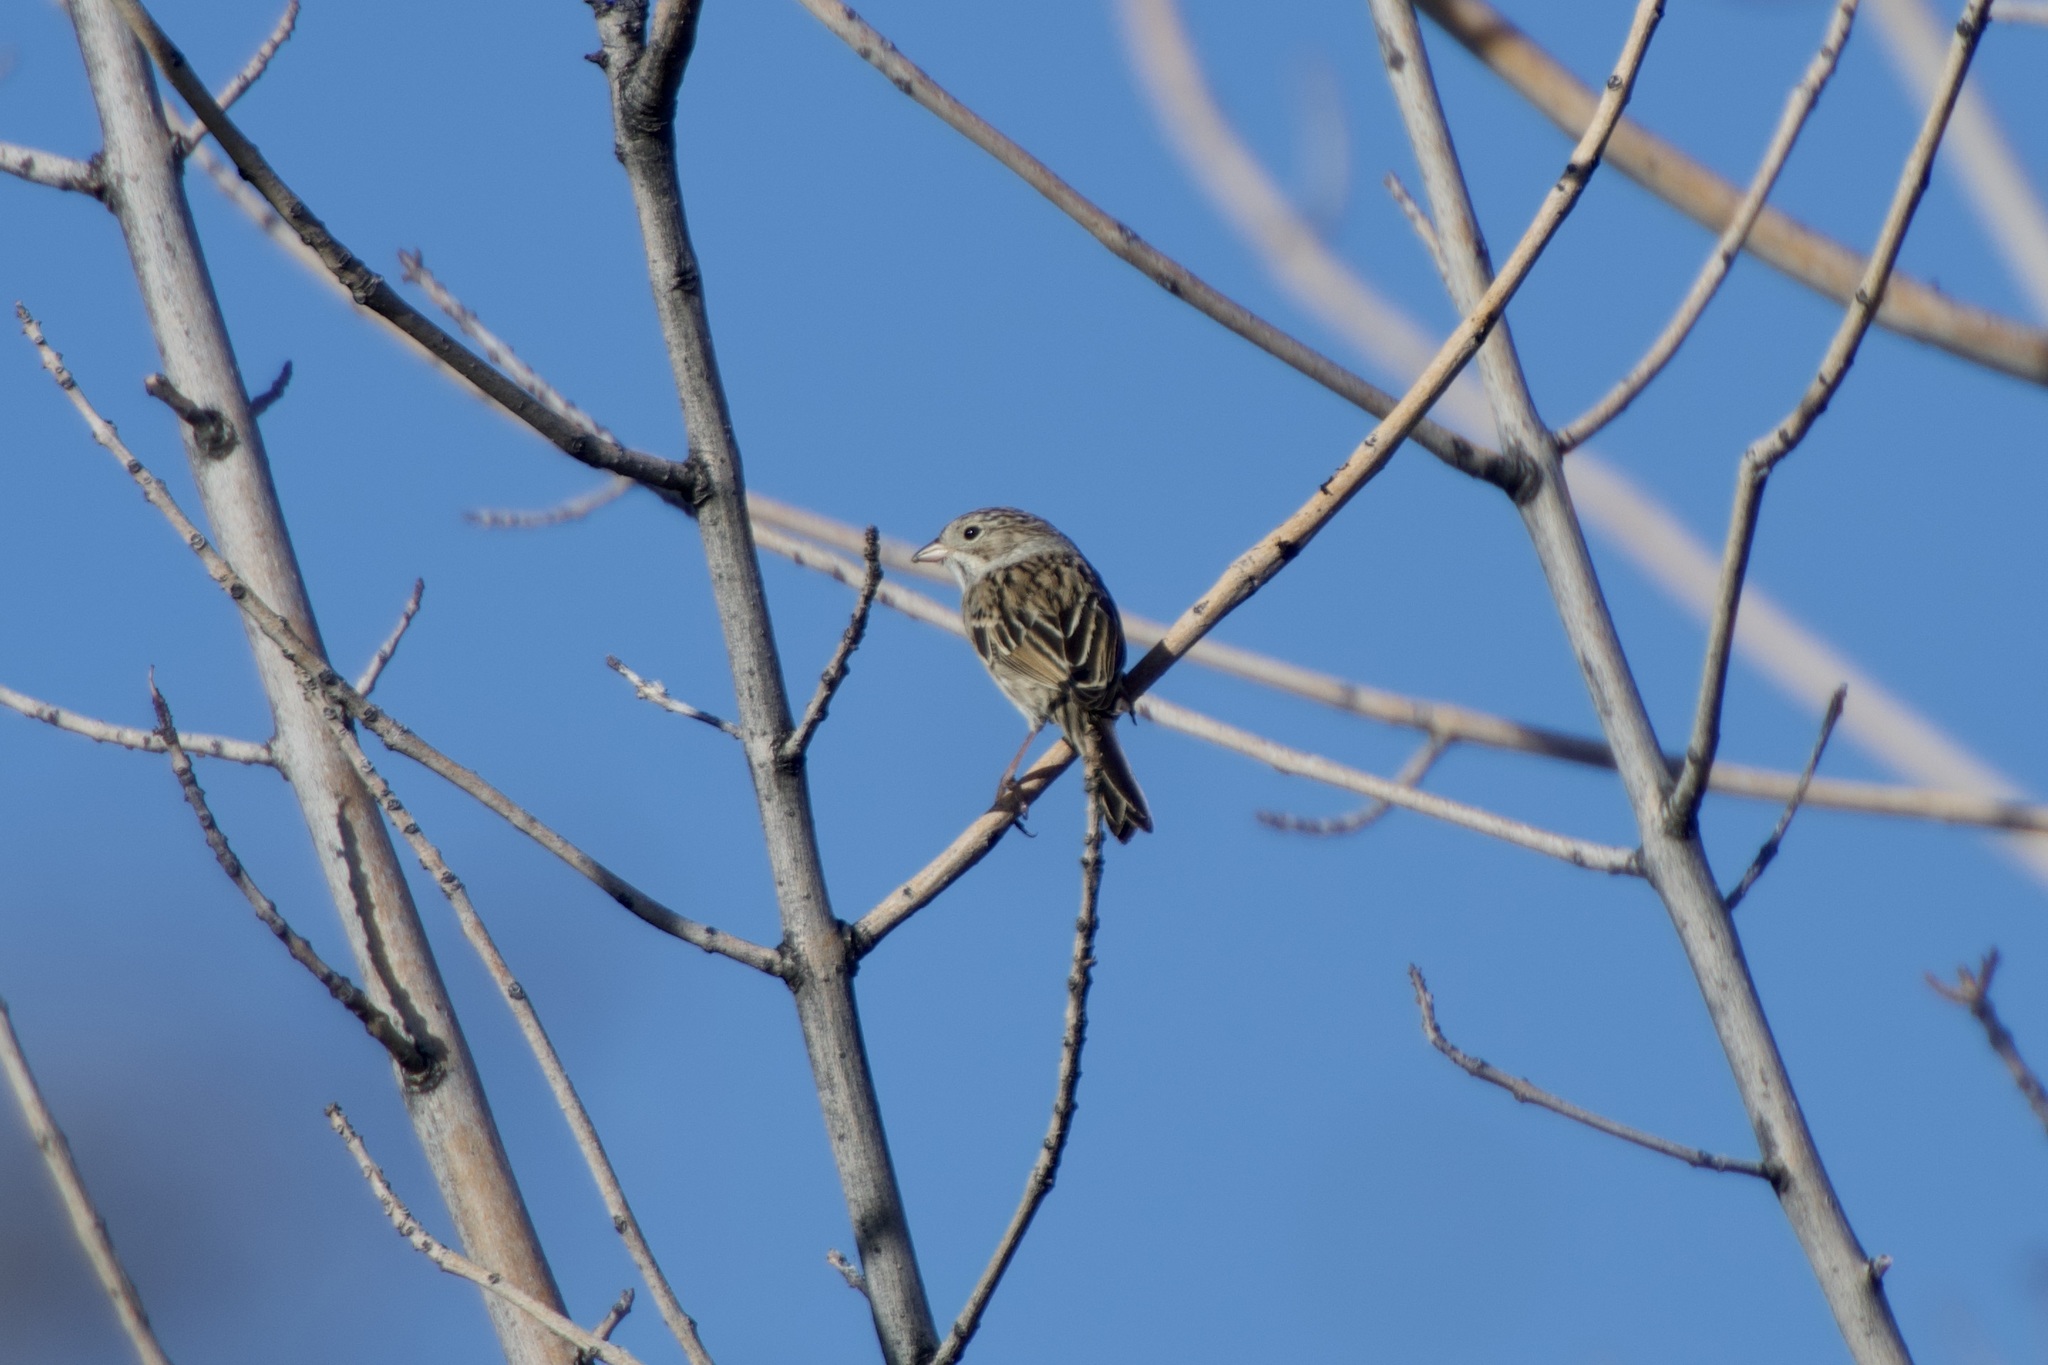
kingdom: Animalia
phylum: Chordata
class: Aves
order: Passeriformes
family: Passerellidae
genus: Spizella
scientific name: Spizella breweri
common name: Brewer's sparrow
